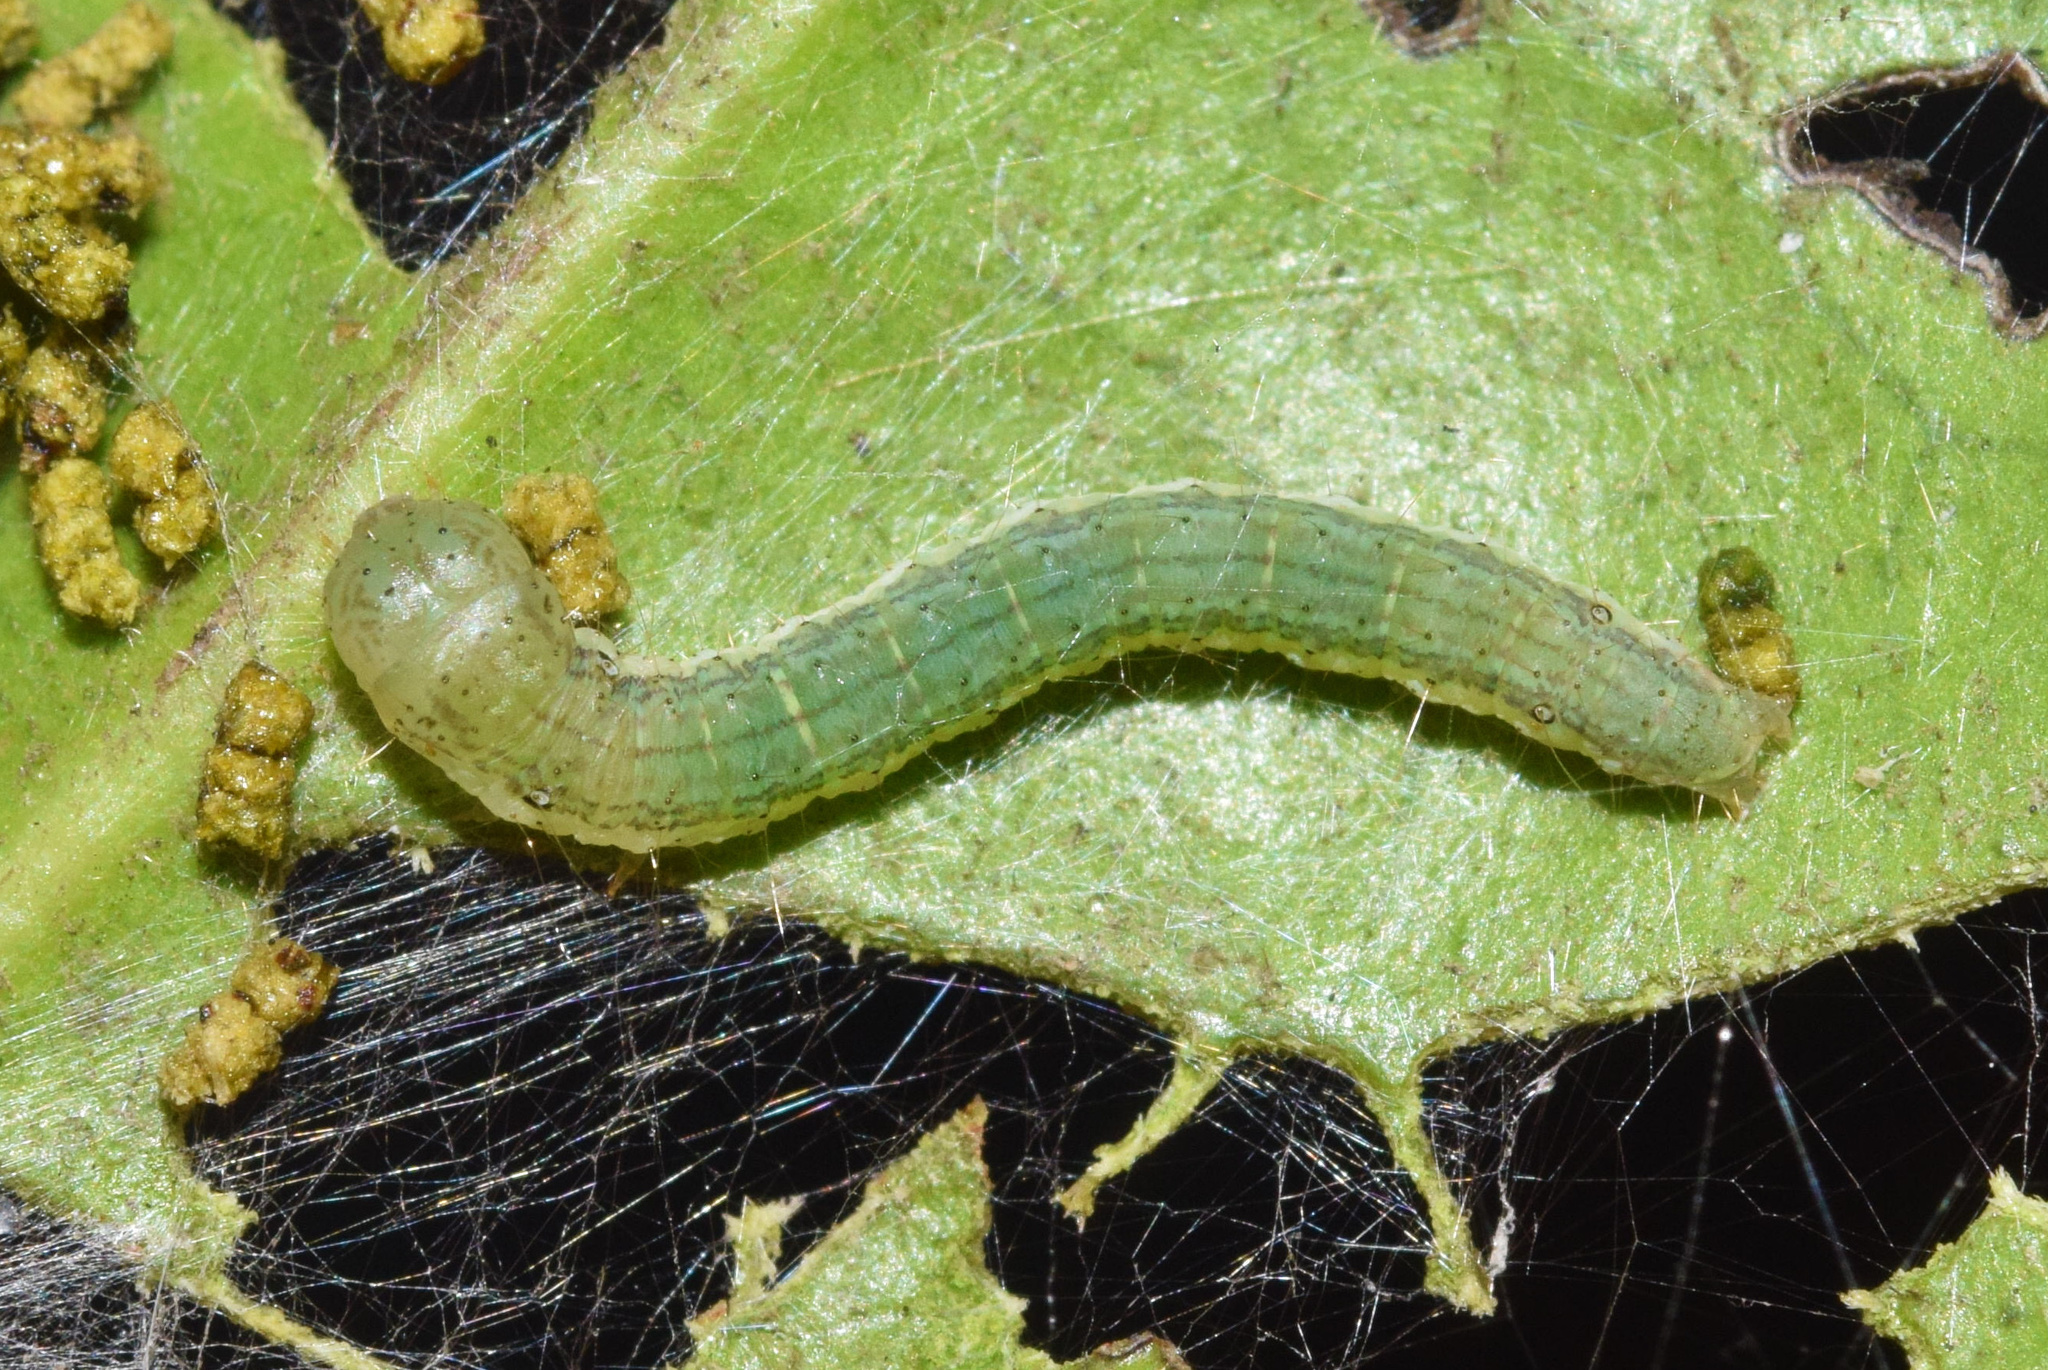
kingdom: Animalia
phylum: Arthropoda
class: Insecta
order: Lepidoptera
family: Pyralidae
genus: Acrobasis
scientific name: Acrobasis
